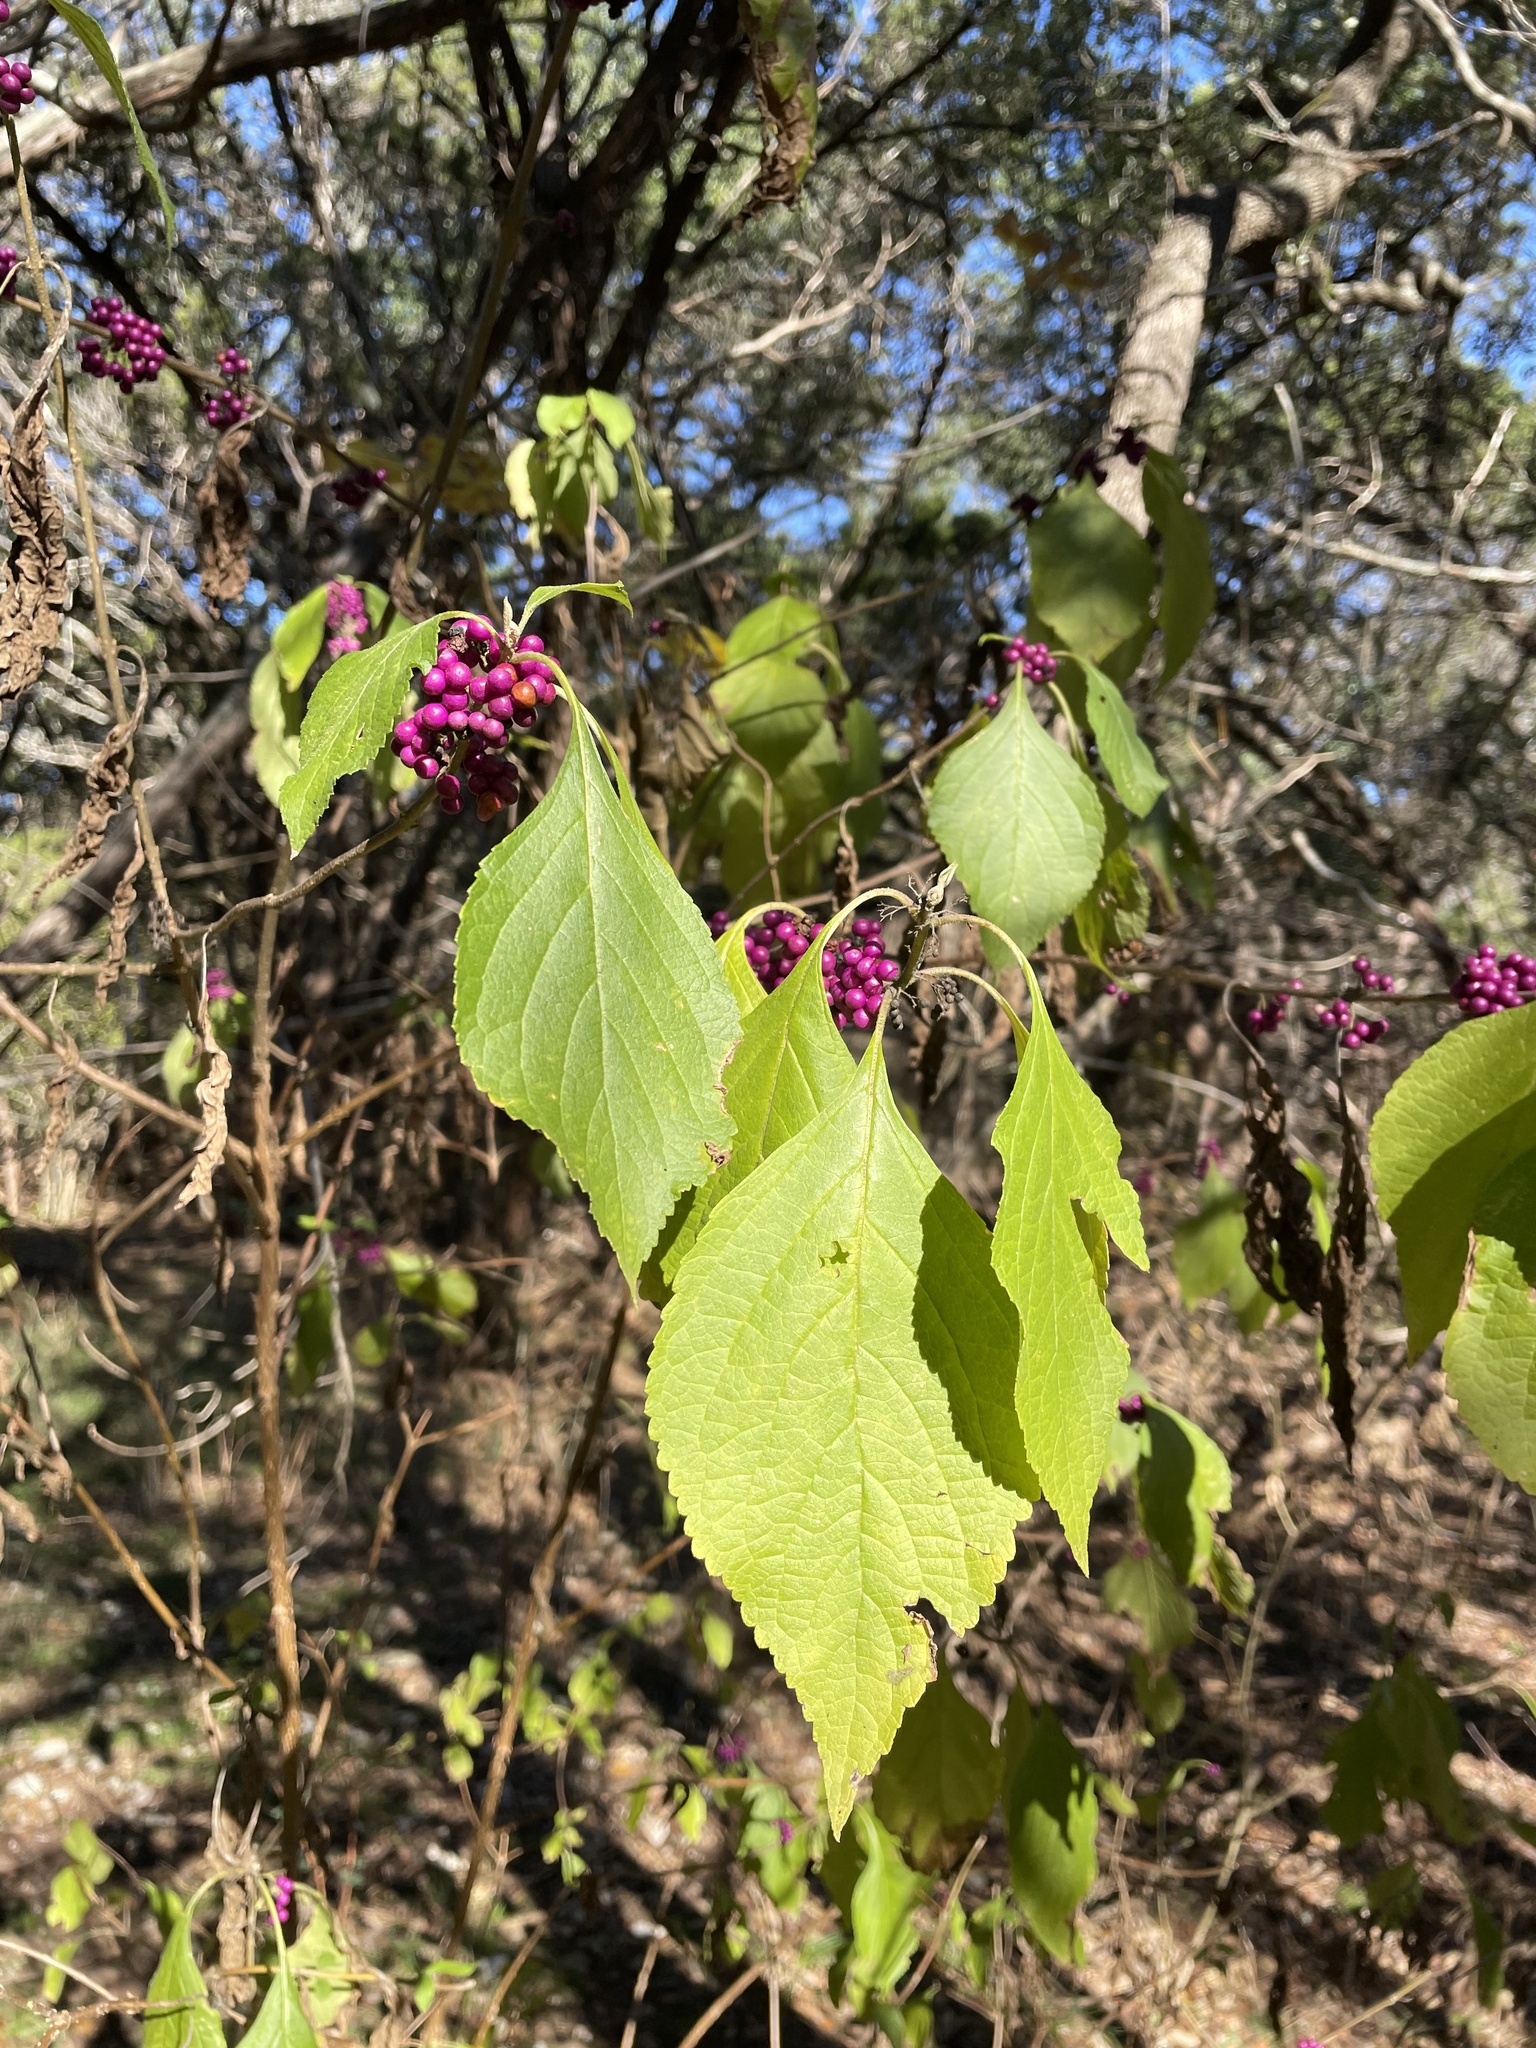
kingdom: Plantae
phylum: Tracheophyta
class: Magnoliopsida
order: Lamiales
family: Lamiaceae
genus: Callicarpa
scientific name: Callicarpa americana
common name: American beautyberry
